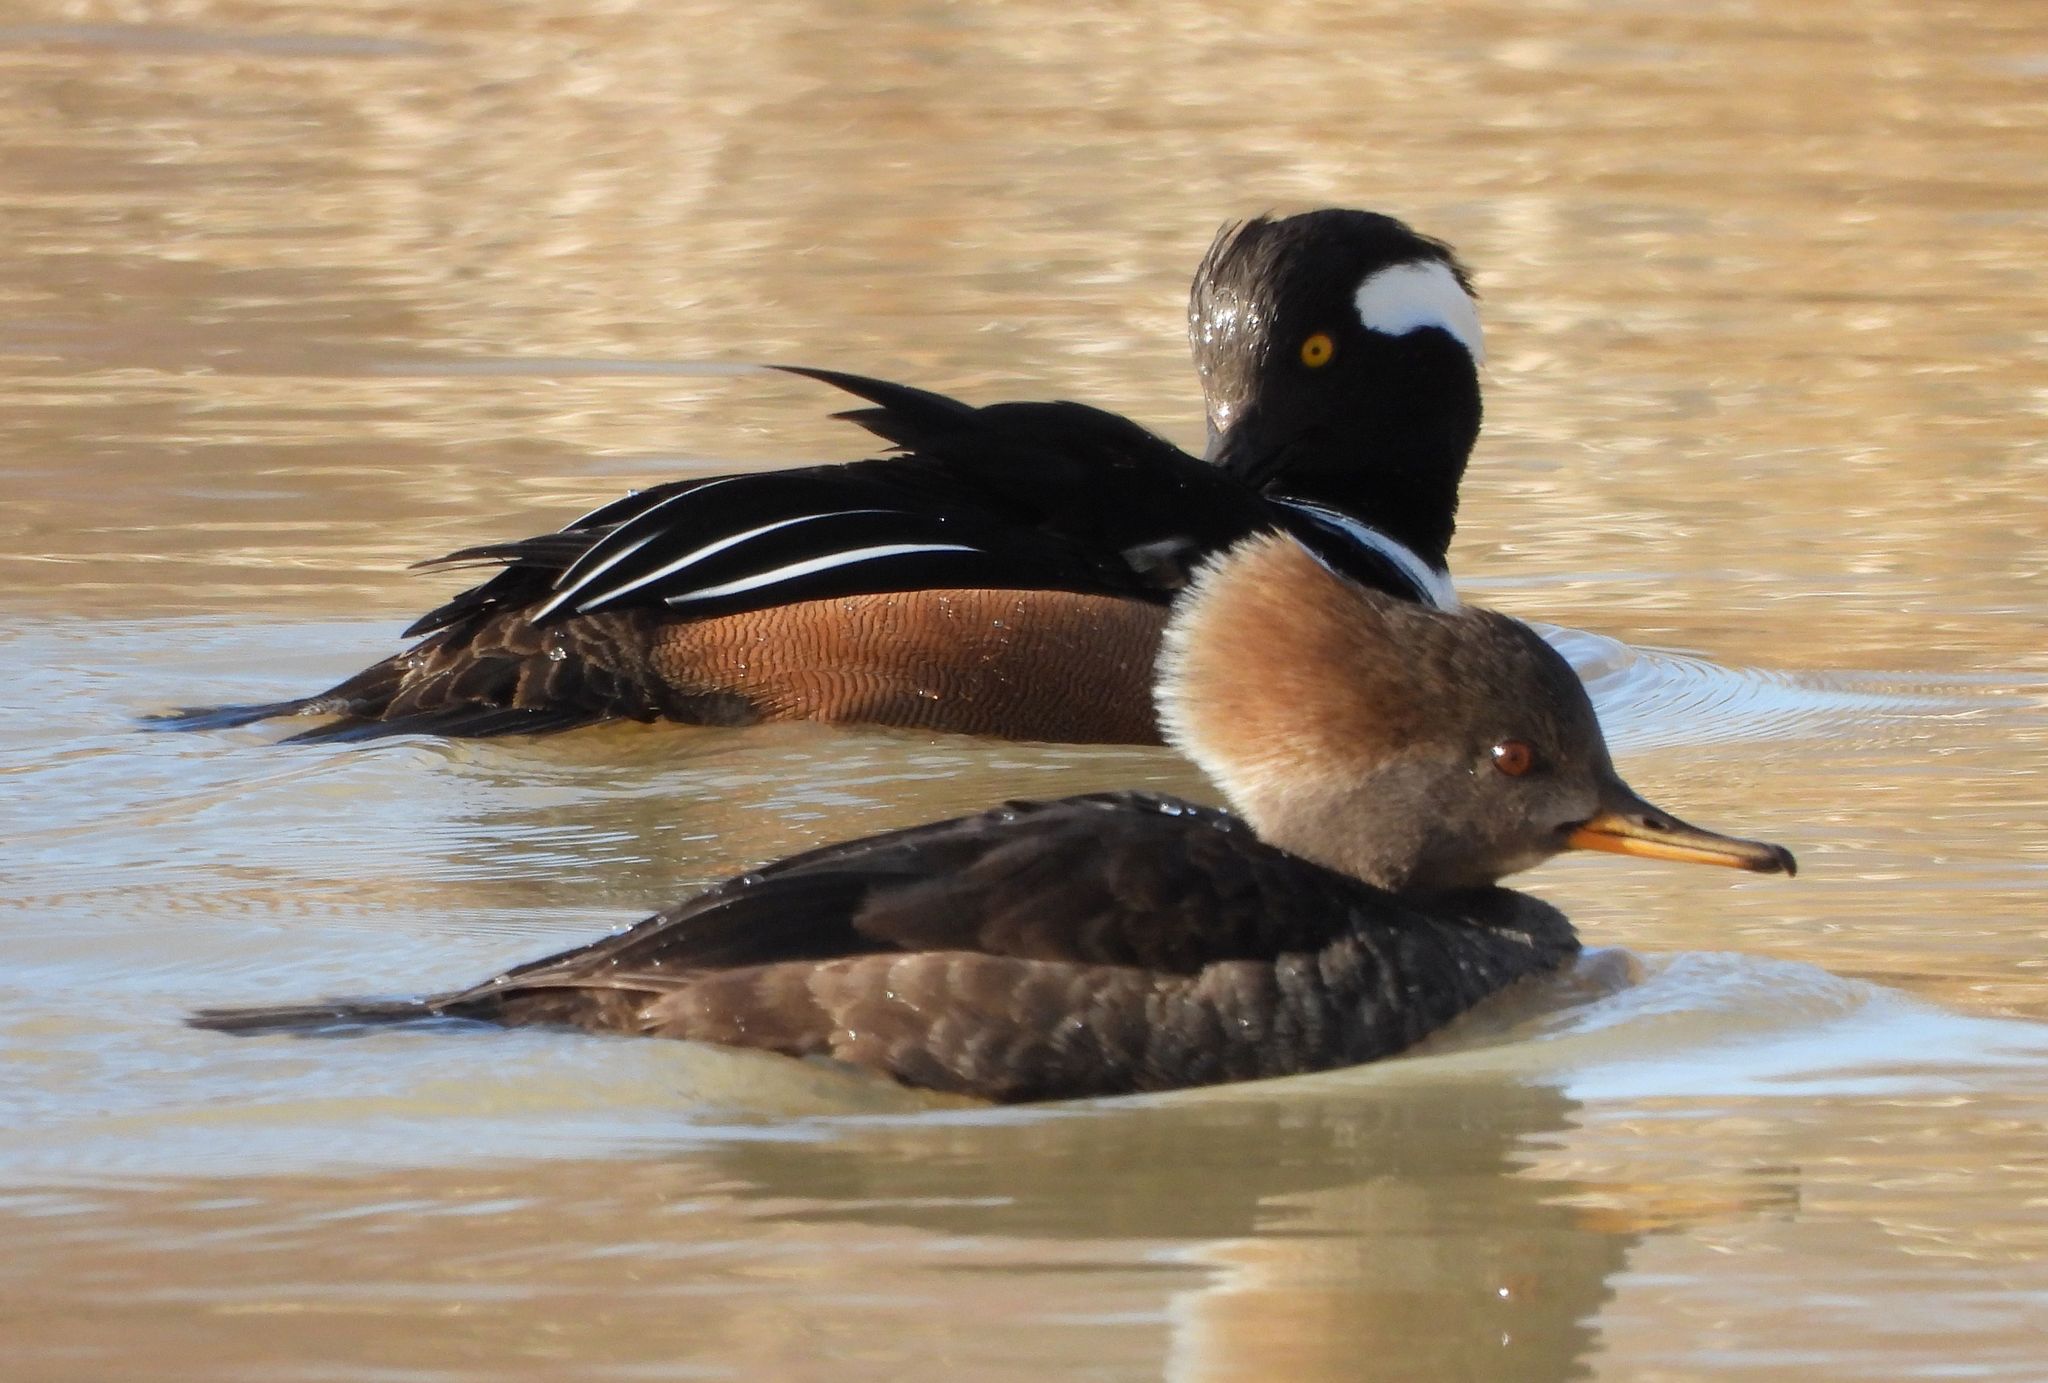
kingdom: Animalia
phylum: Chordata
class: Aves
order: Anseriformes
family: Anatidae
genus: Lophodytes
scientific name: Lophodytes cucullatus
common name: Hooded merganser
